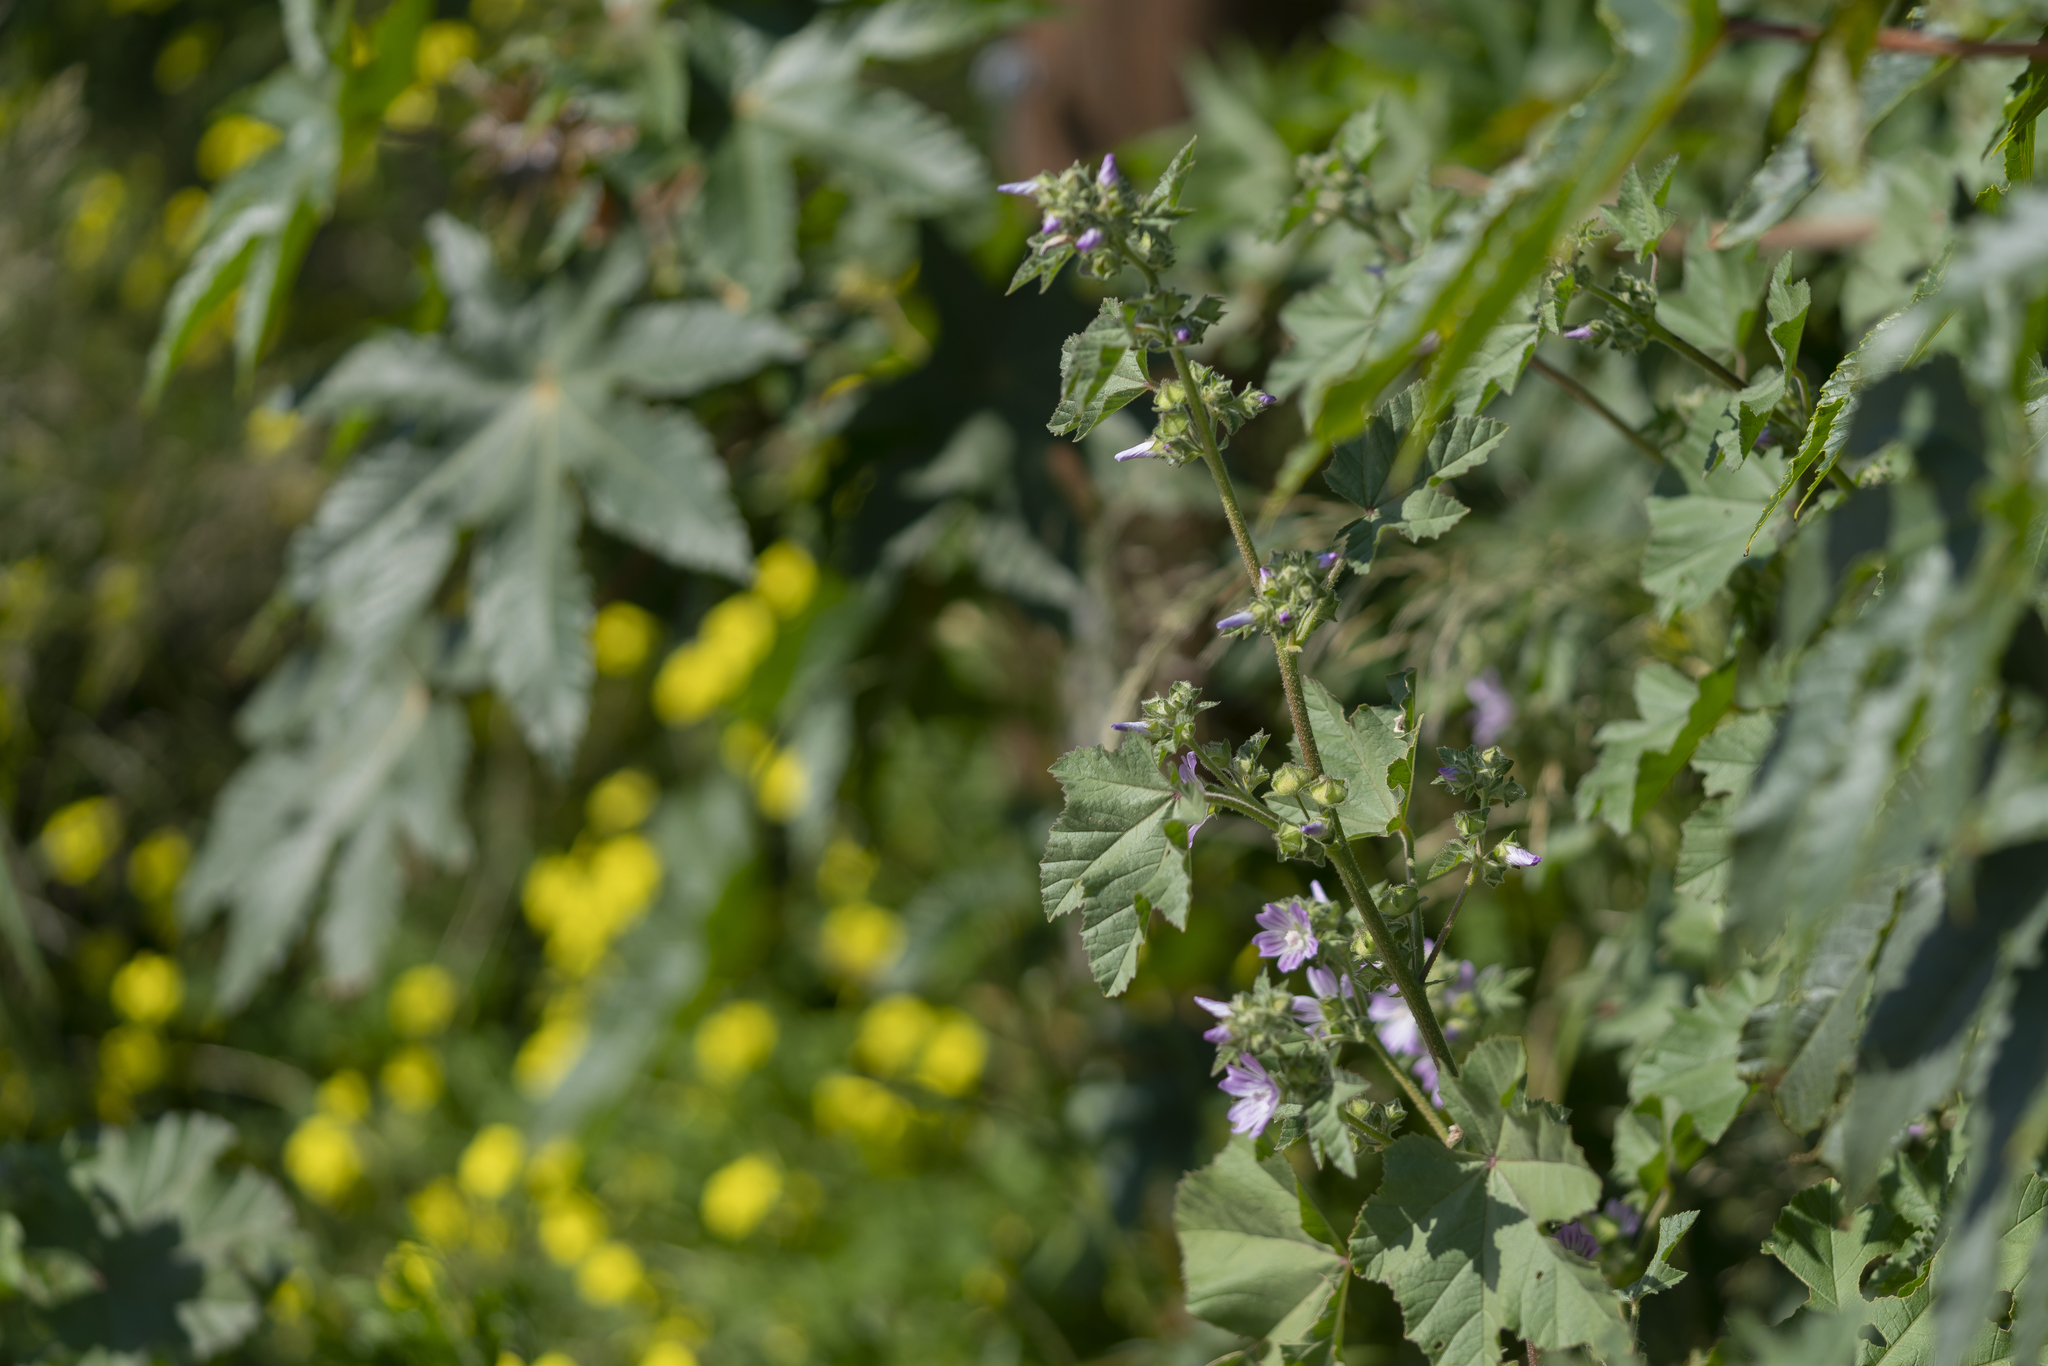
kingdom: Plantae
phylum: Tracheophyta
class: Magnoliopsida
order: Malvales
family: Malvaceae
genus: Malva
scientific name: Malva multiflora
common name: Cheeseweed
